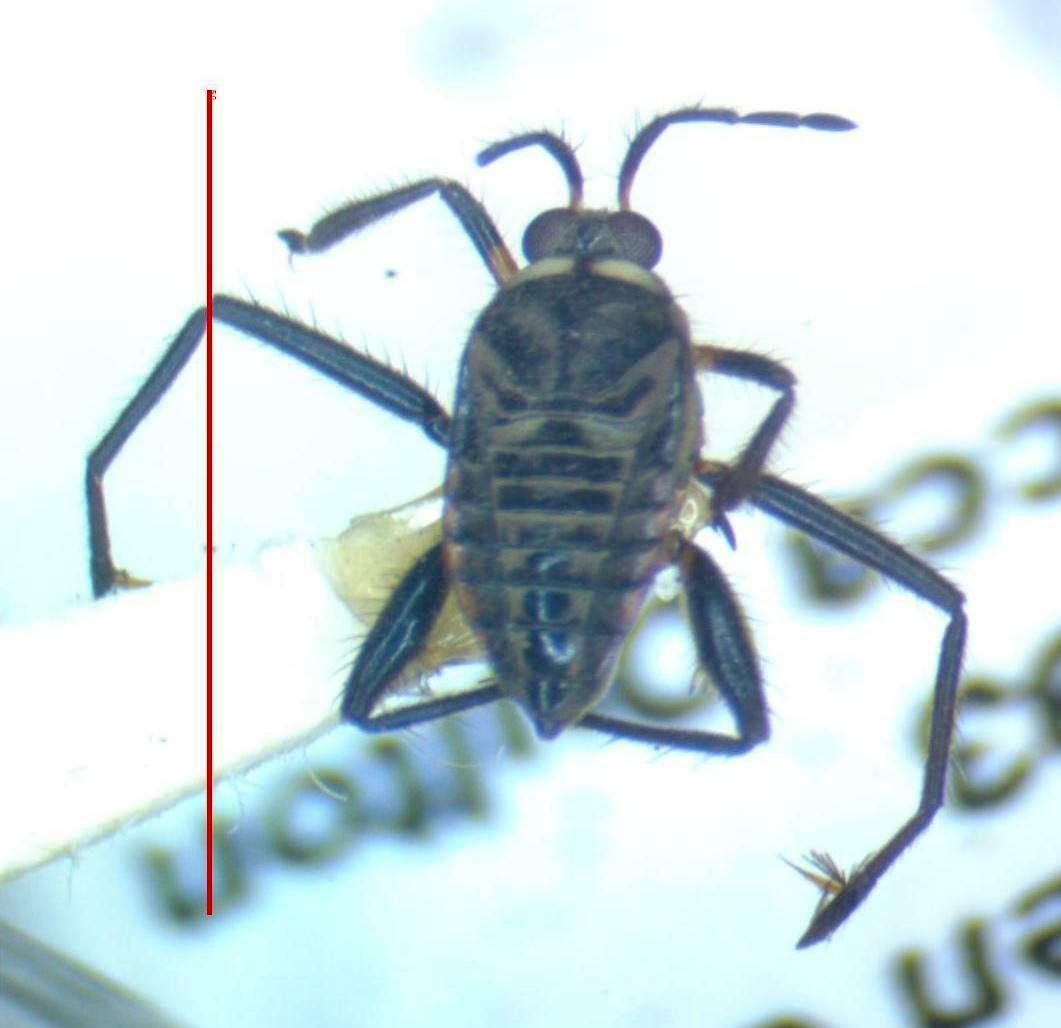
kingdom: Animalia
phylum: Arthropoda
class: Insecta
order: Hemiptera
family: Veliidae
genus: Rhagovelia
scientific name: Rhagovelia
